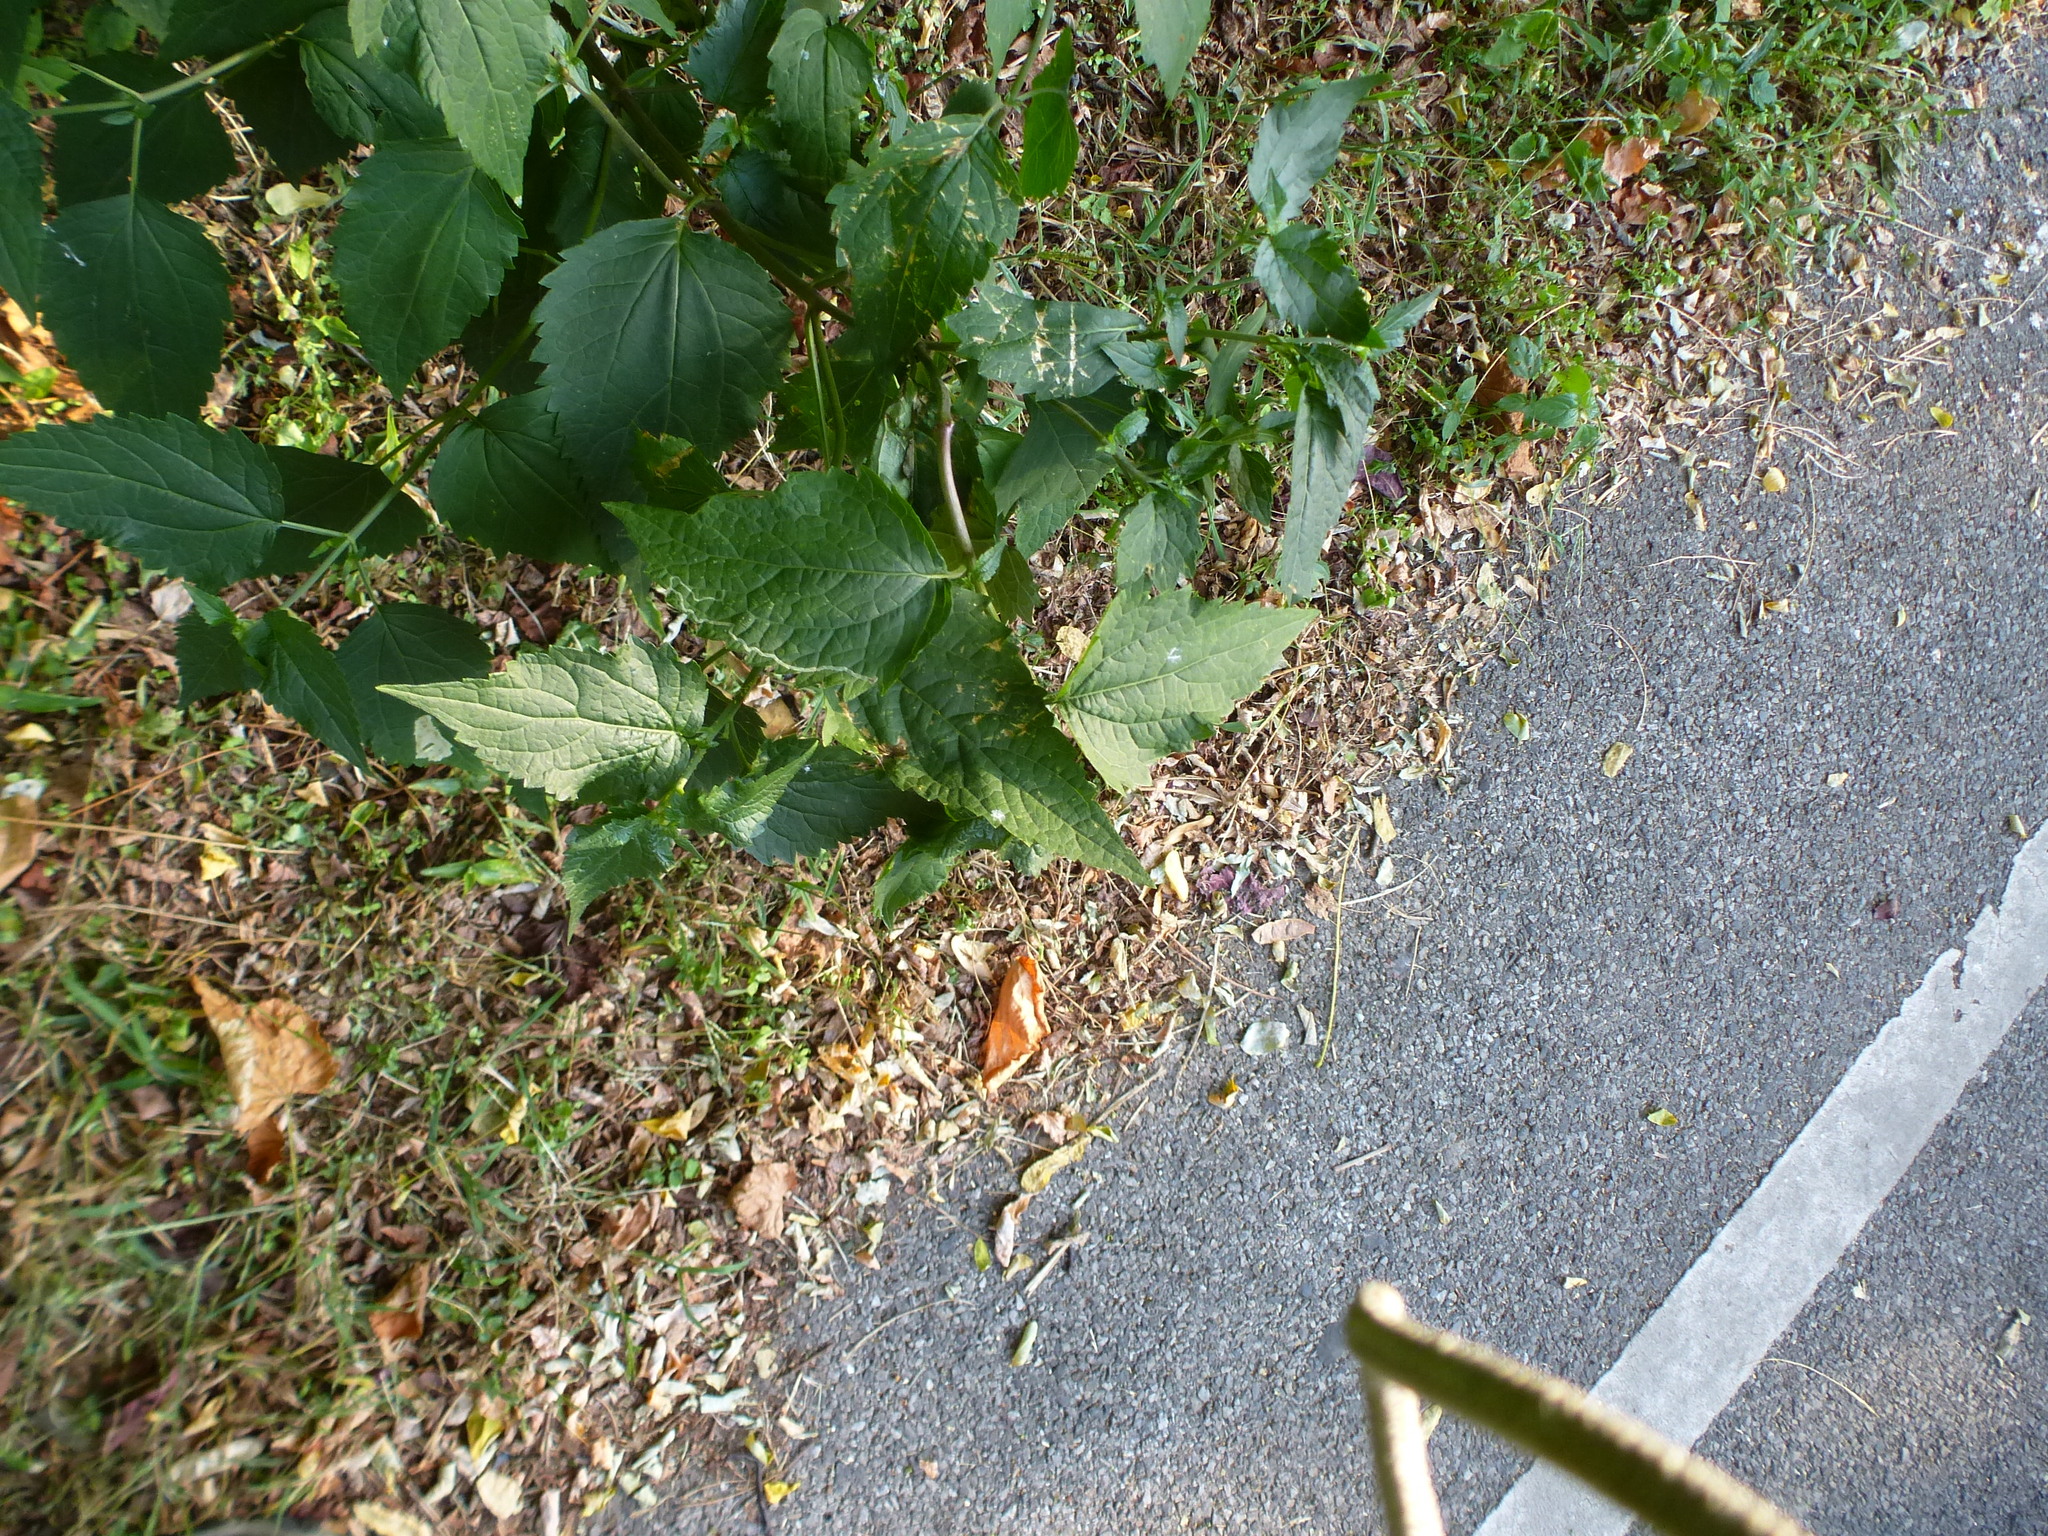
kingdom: Plantae
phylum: Tracheophyta
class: Magnoliopsida
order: Asterales
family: Asteraceae
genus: Ageratina
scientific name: Ageratina altissima
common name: White snakeroot
